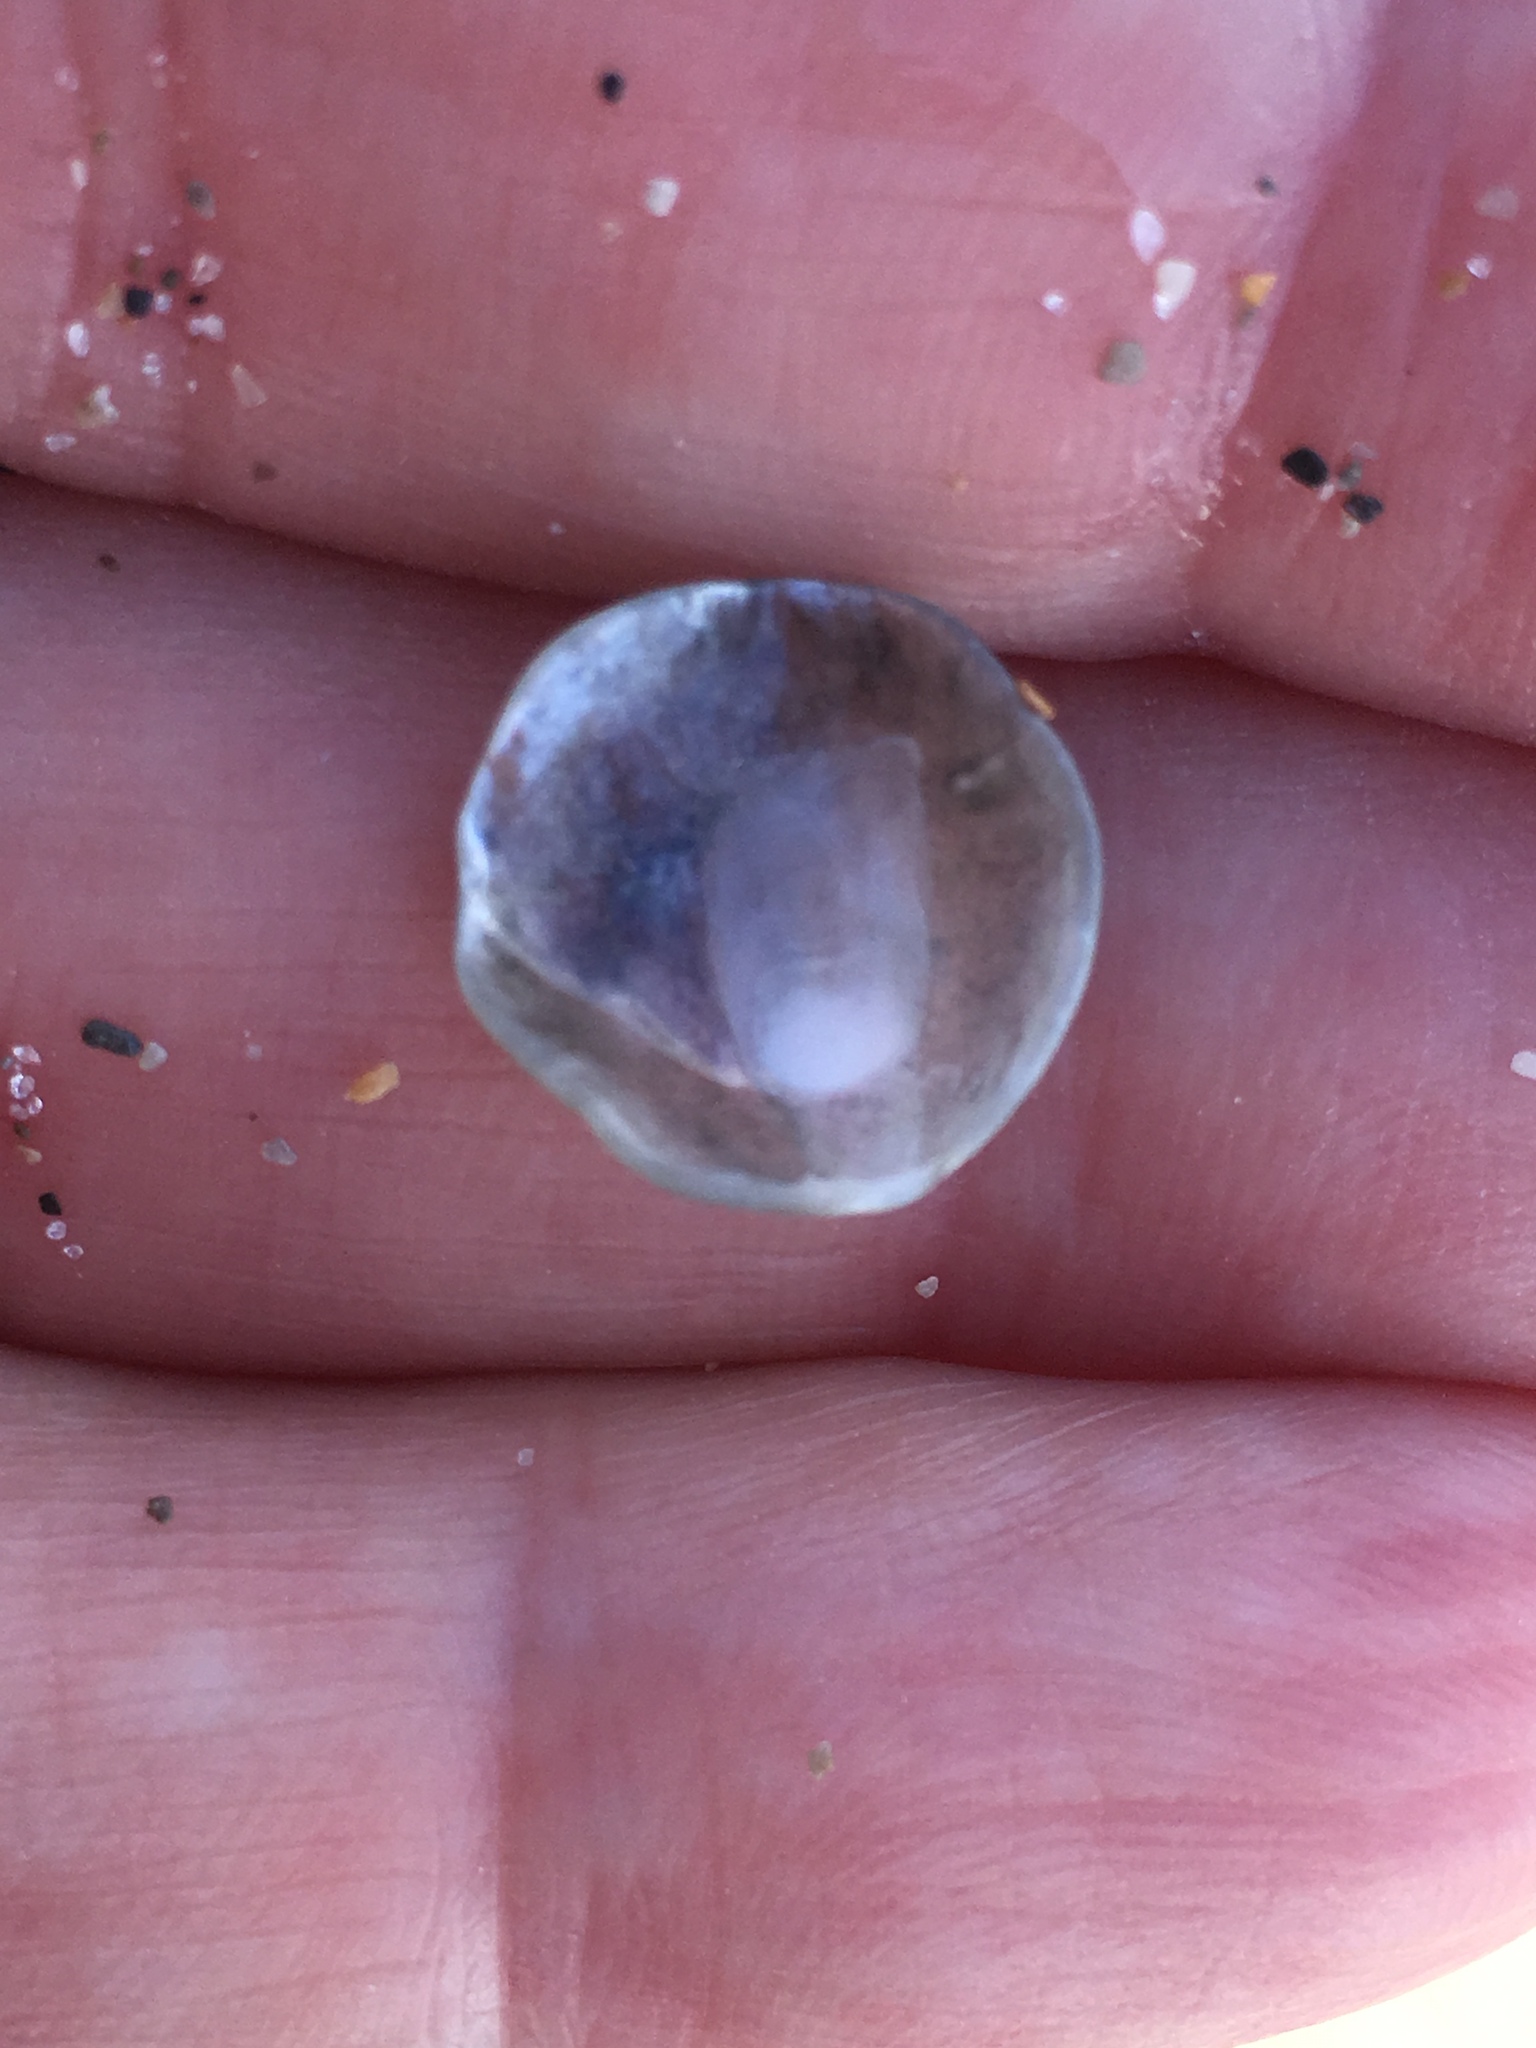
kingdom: Animalia
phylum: Mollusca
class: Bivalvia
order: Pectinida
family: Anomiidae
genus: Anomia
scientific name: Anomia simplex
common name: Common jingle shell
